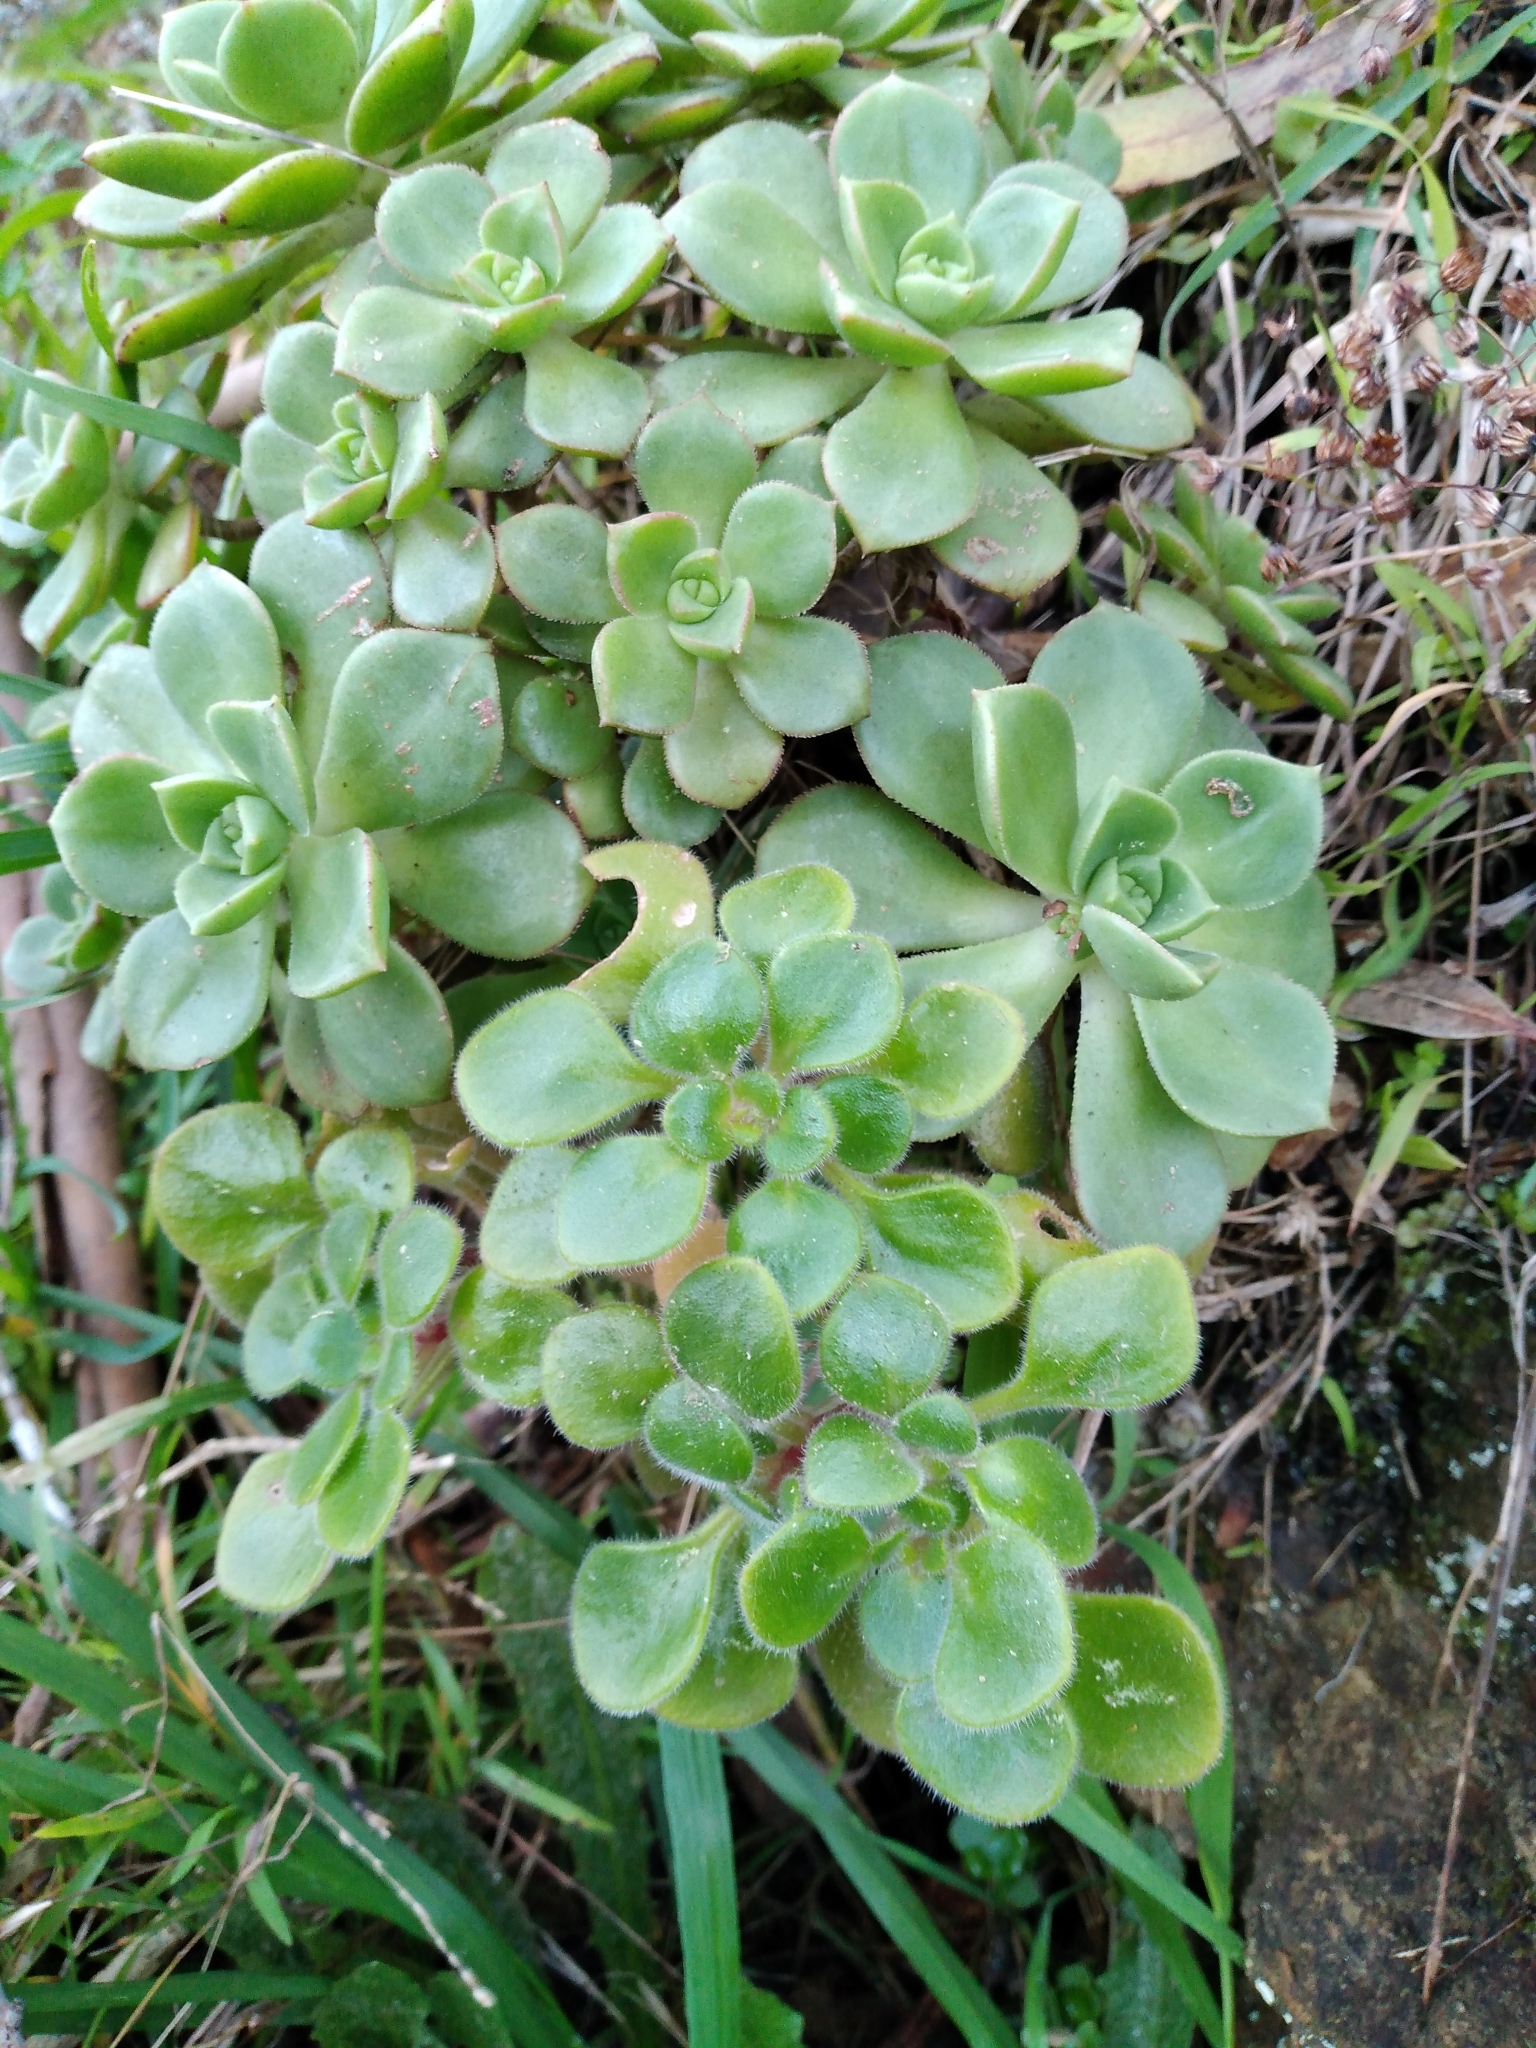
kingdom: Plantae
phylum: Tracheophyta
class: Magnoliopsida
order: Saxifragales
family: Crassulaceae
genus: Aichryson
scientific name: Aichryson laxum
